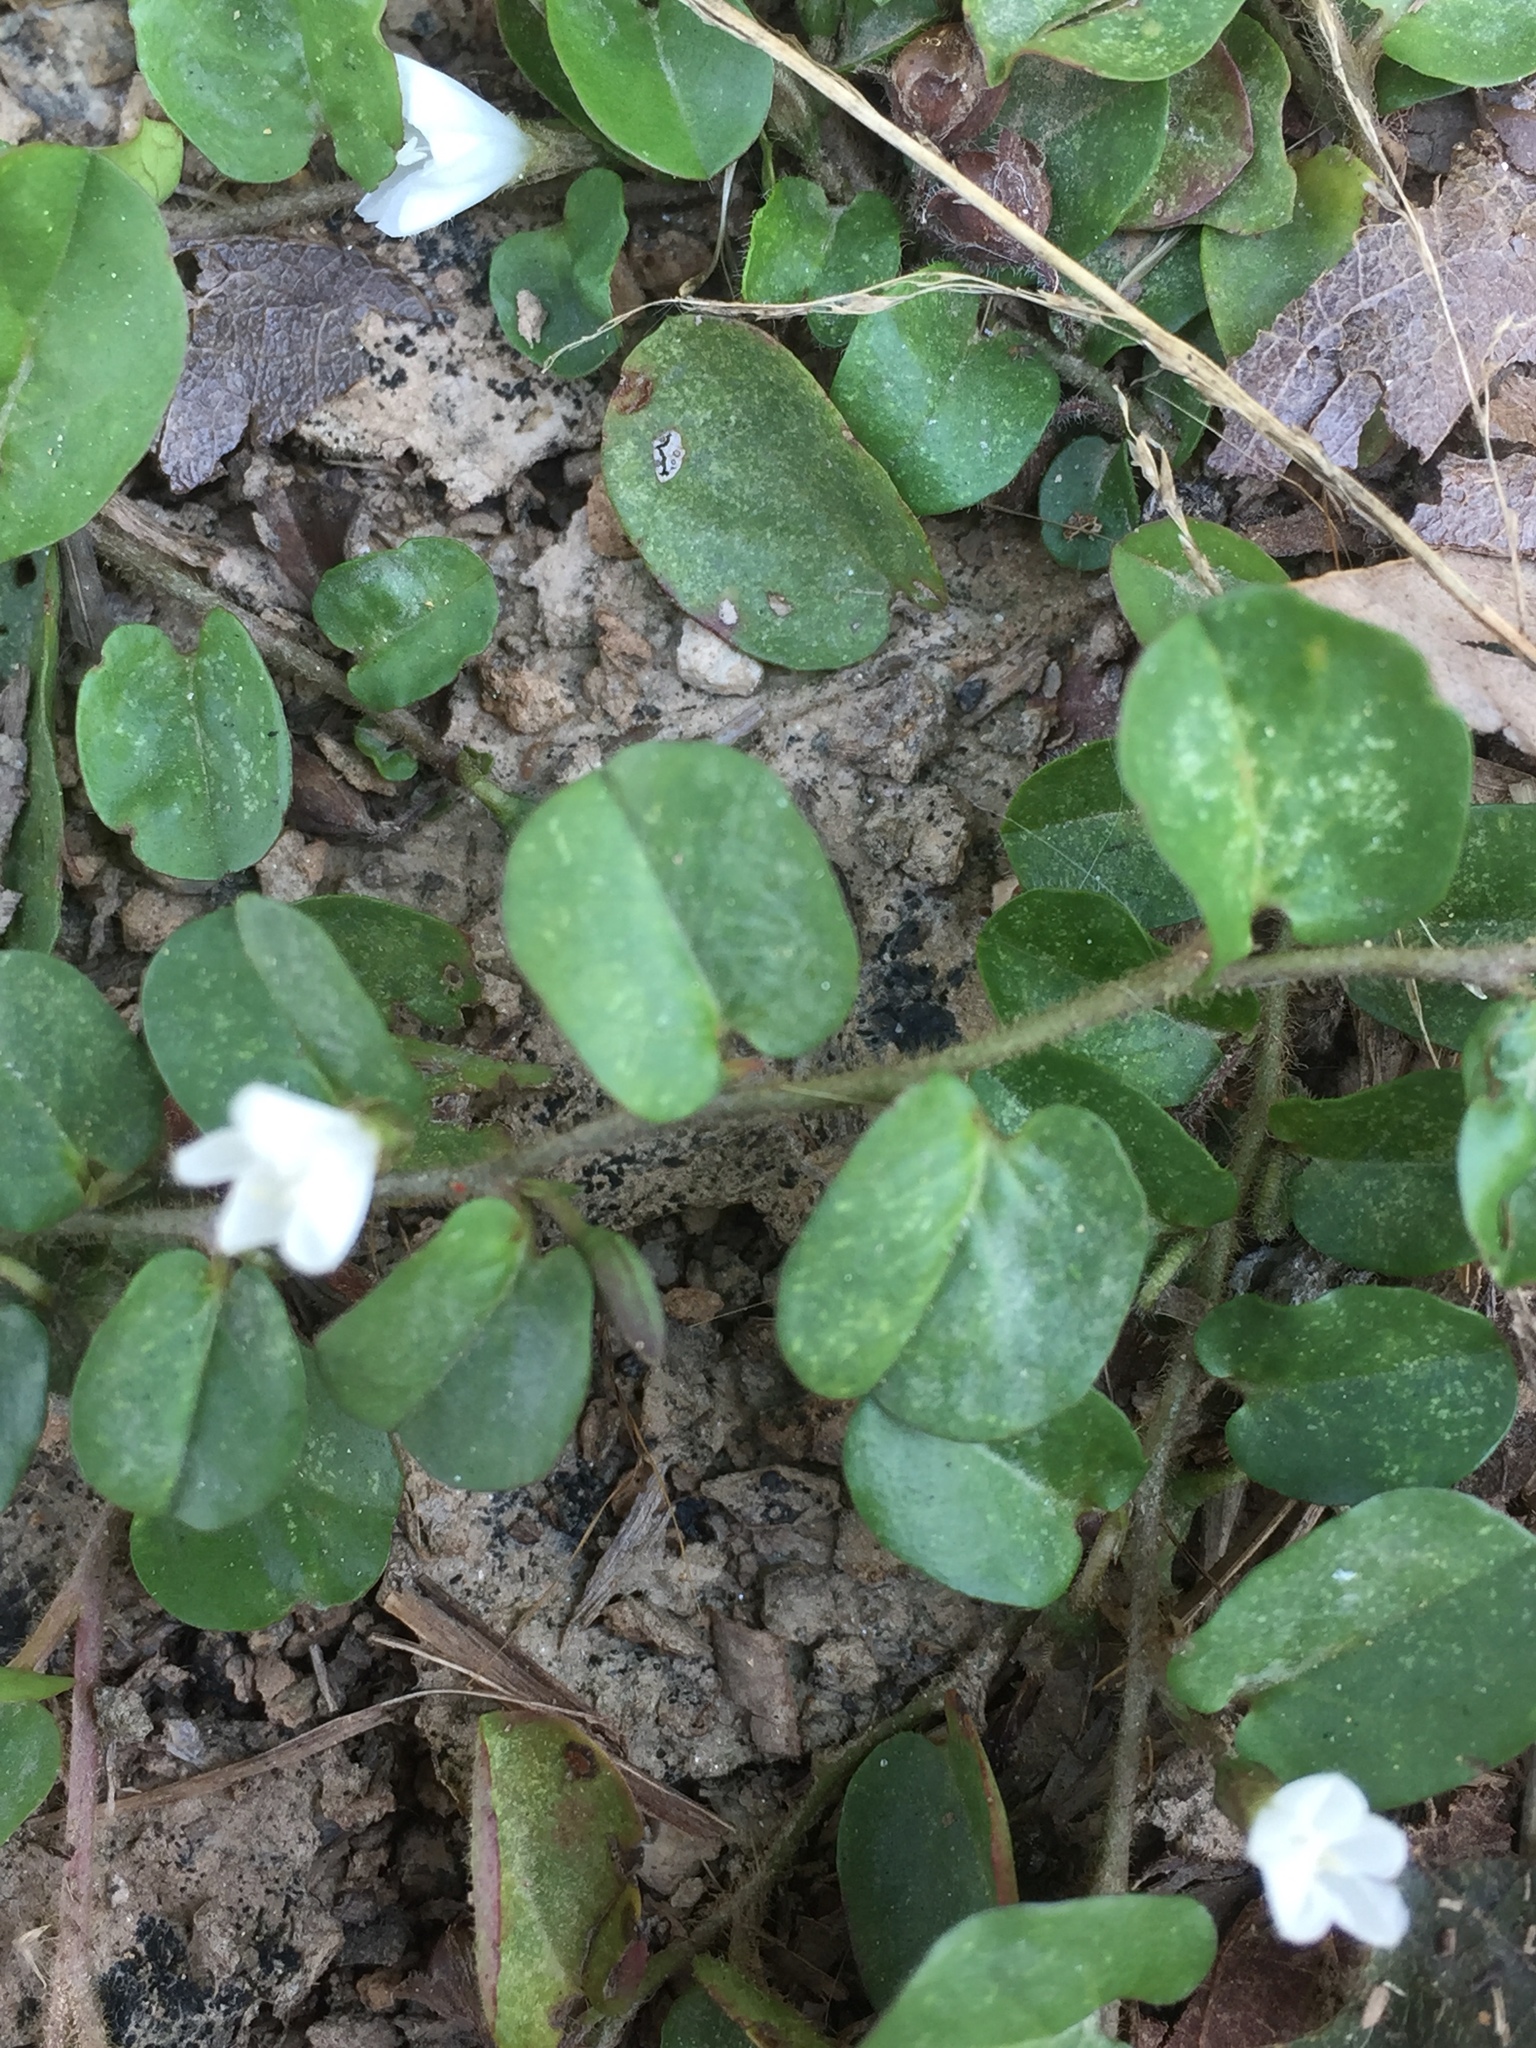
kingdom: Plantae
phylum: Tracheophyta
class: Magnoliopsida
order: Solanales
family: Convolvulaceae
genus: Evolvulus
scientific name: Evolvulus nummularius
